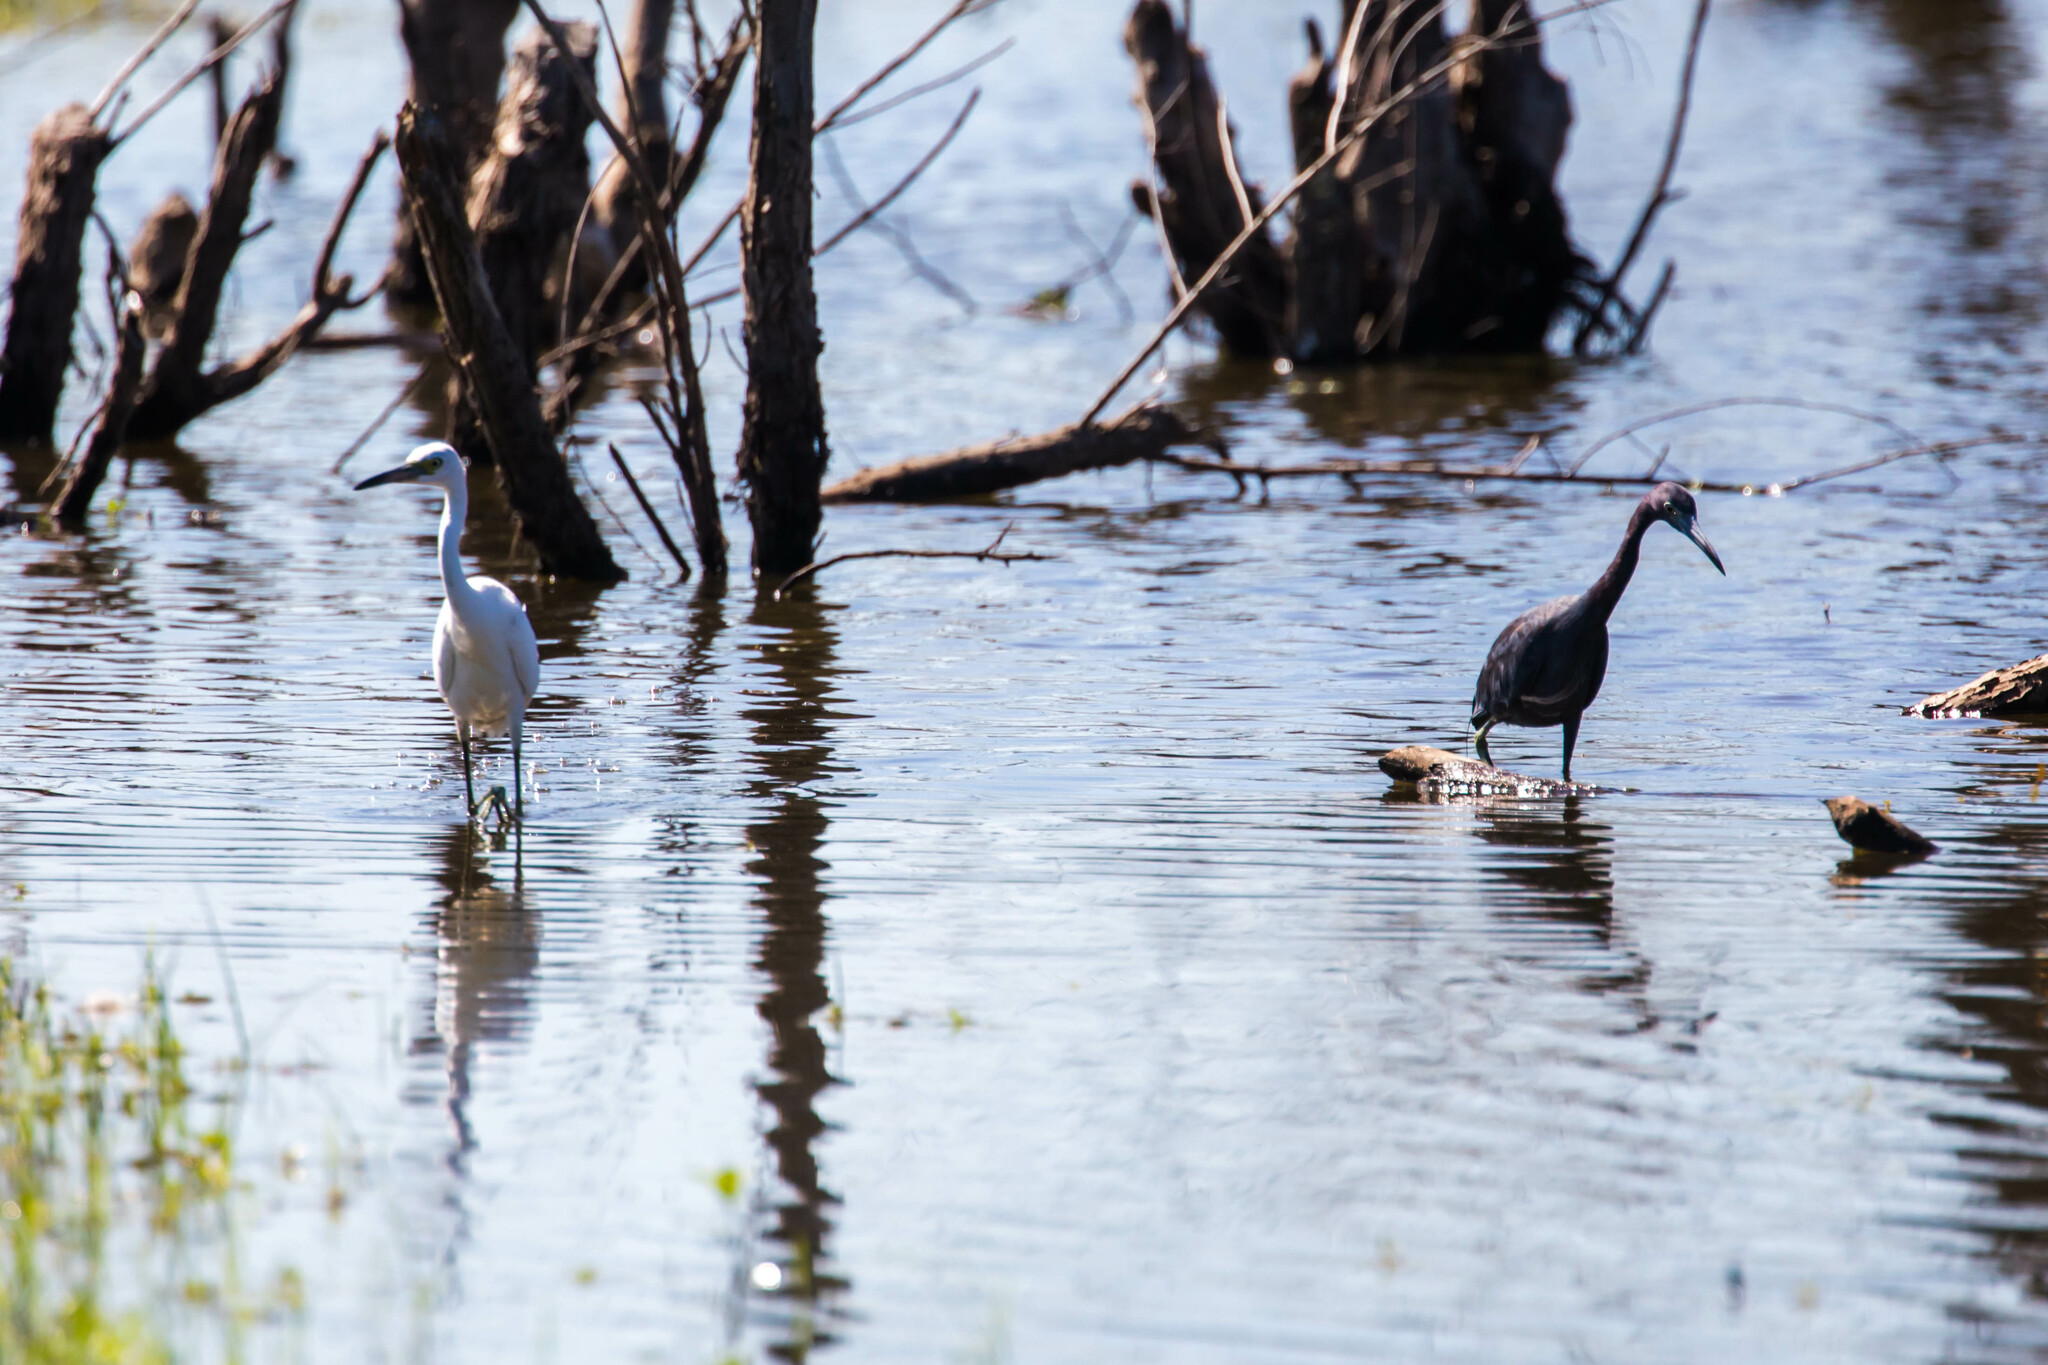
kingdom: Animalia
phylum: Chordata
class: Aves
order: Pelecaniformes
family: Ardeidae
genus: Egretta
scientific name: Egretta caerulea
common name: Little blue heron
